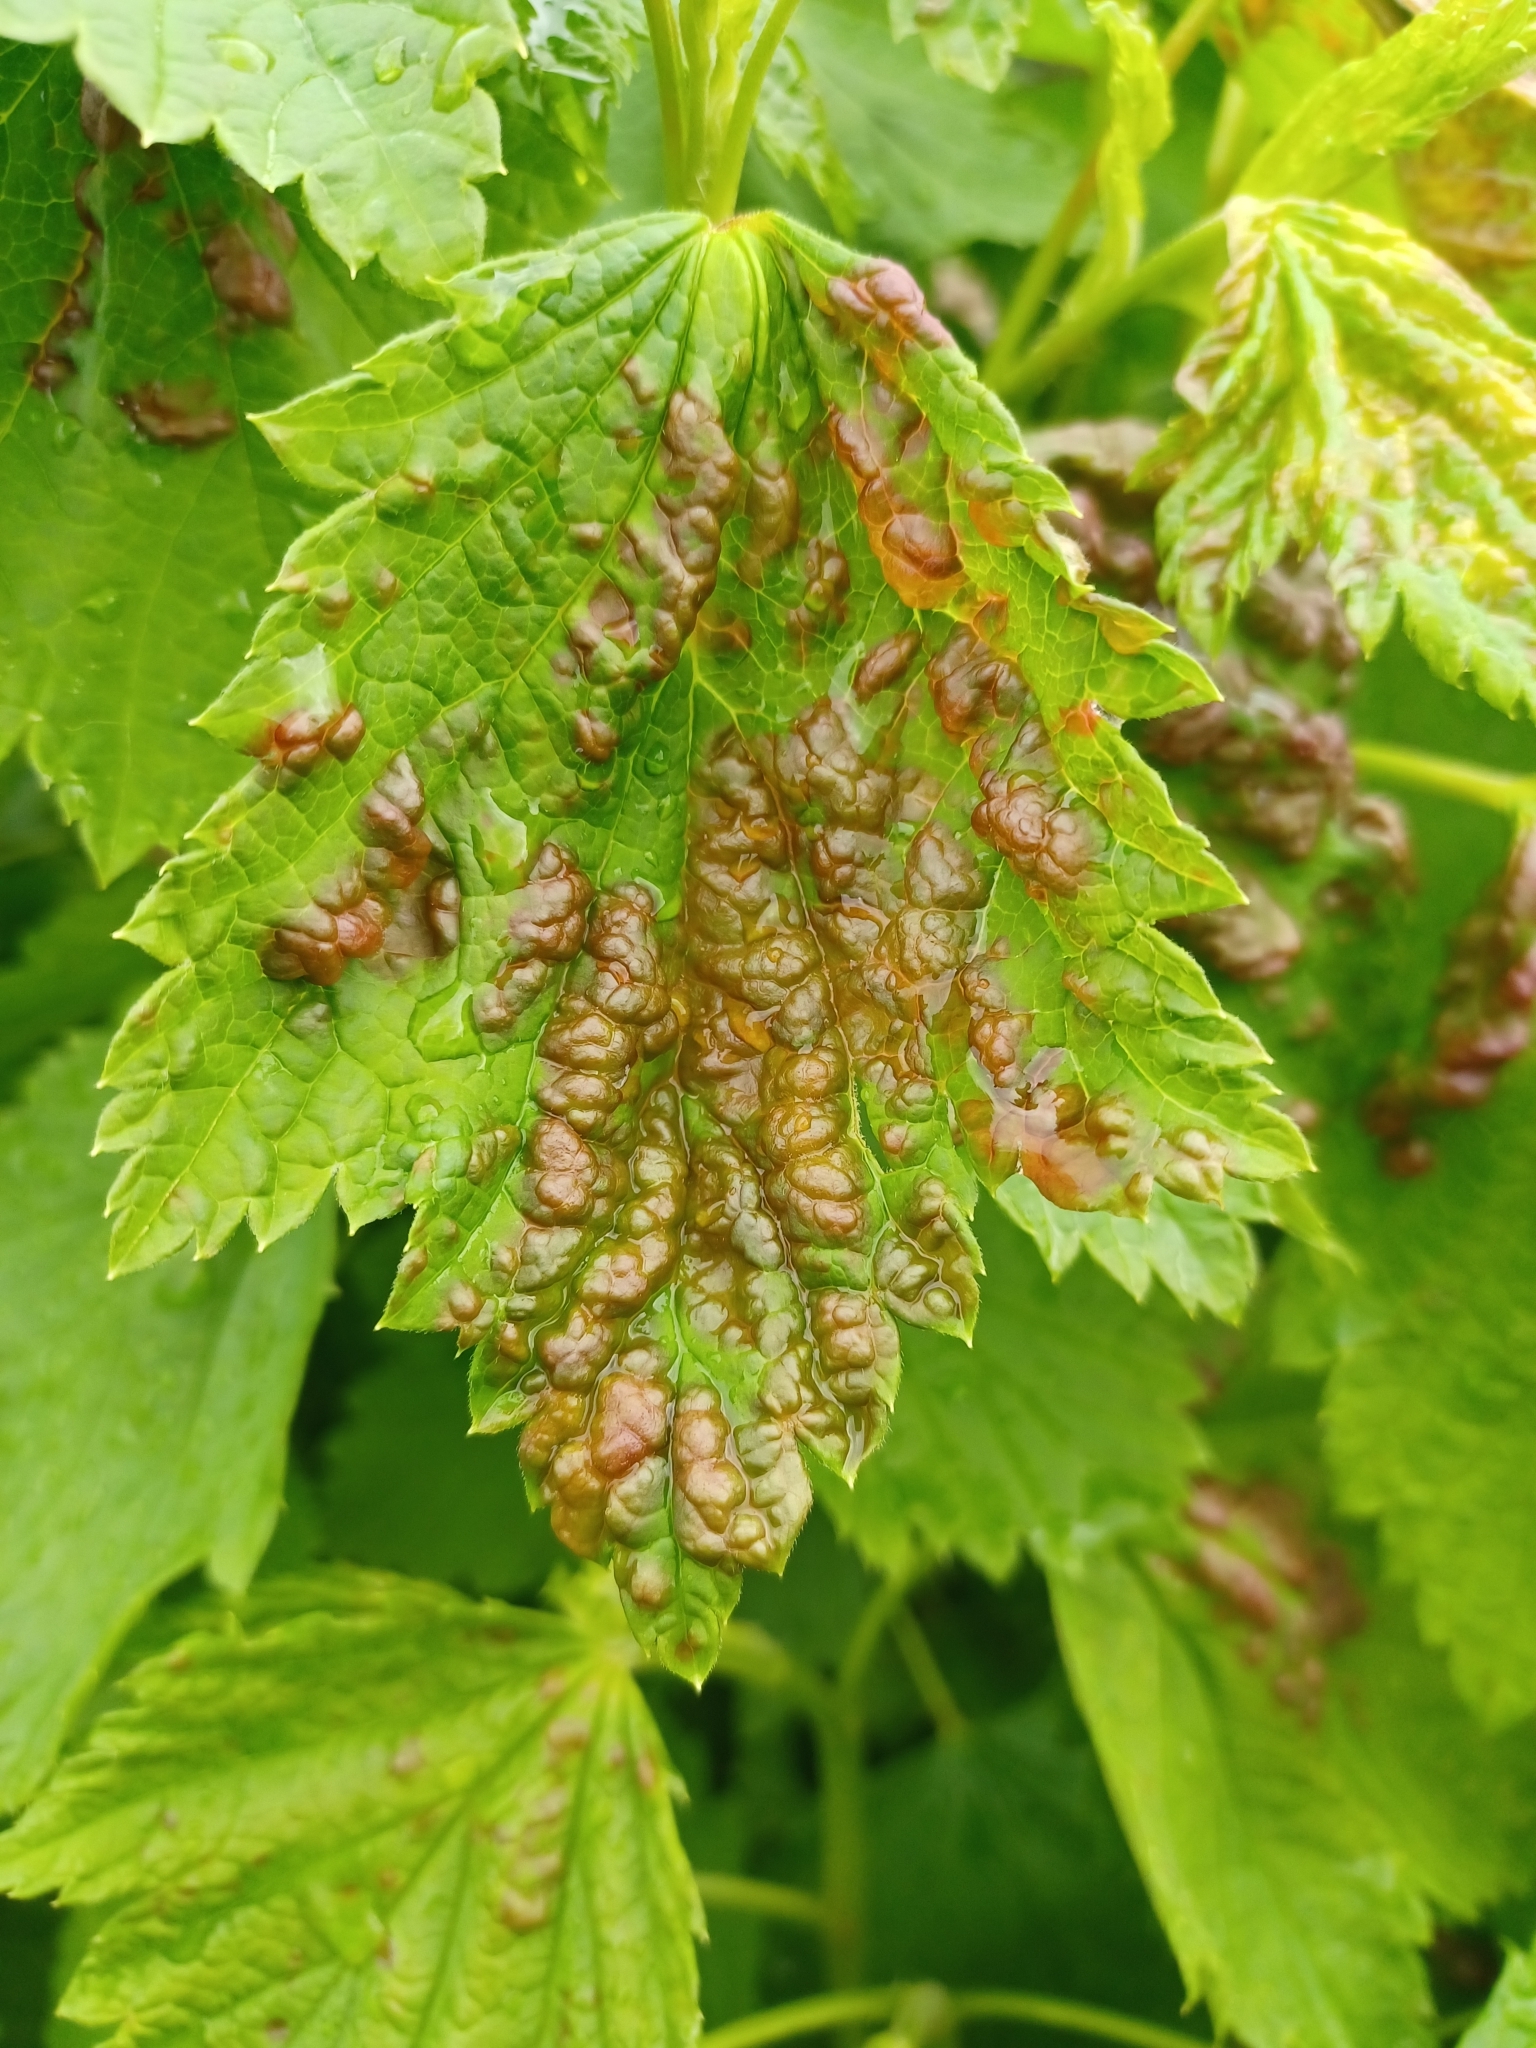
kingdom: Animalia
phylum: Arthropoda
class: Insecta
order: Hemiptera
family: Aphididae
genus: Cryptomyzus
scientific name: Cryptomyzus ribis
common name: Currant aphid
